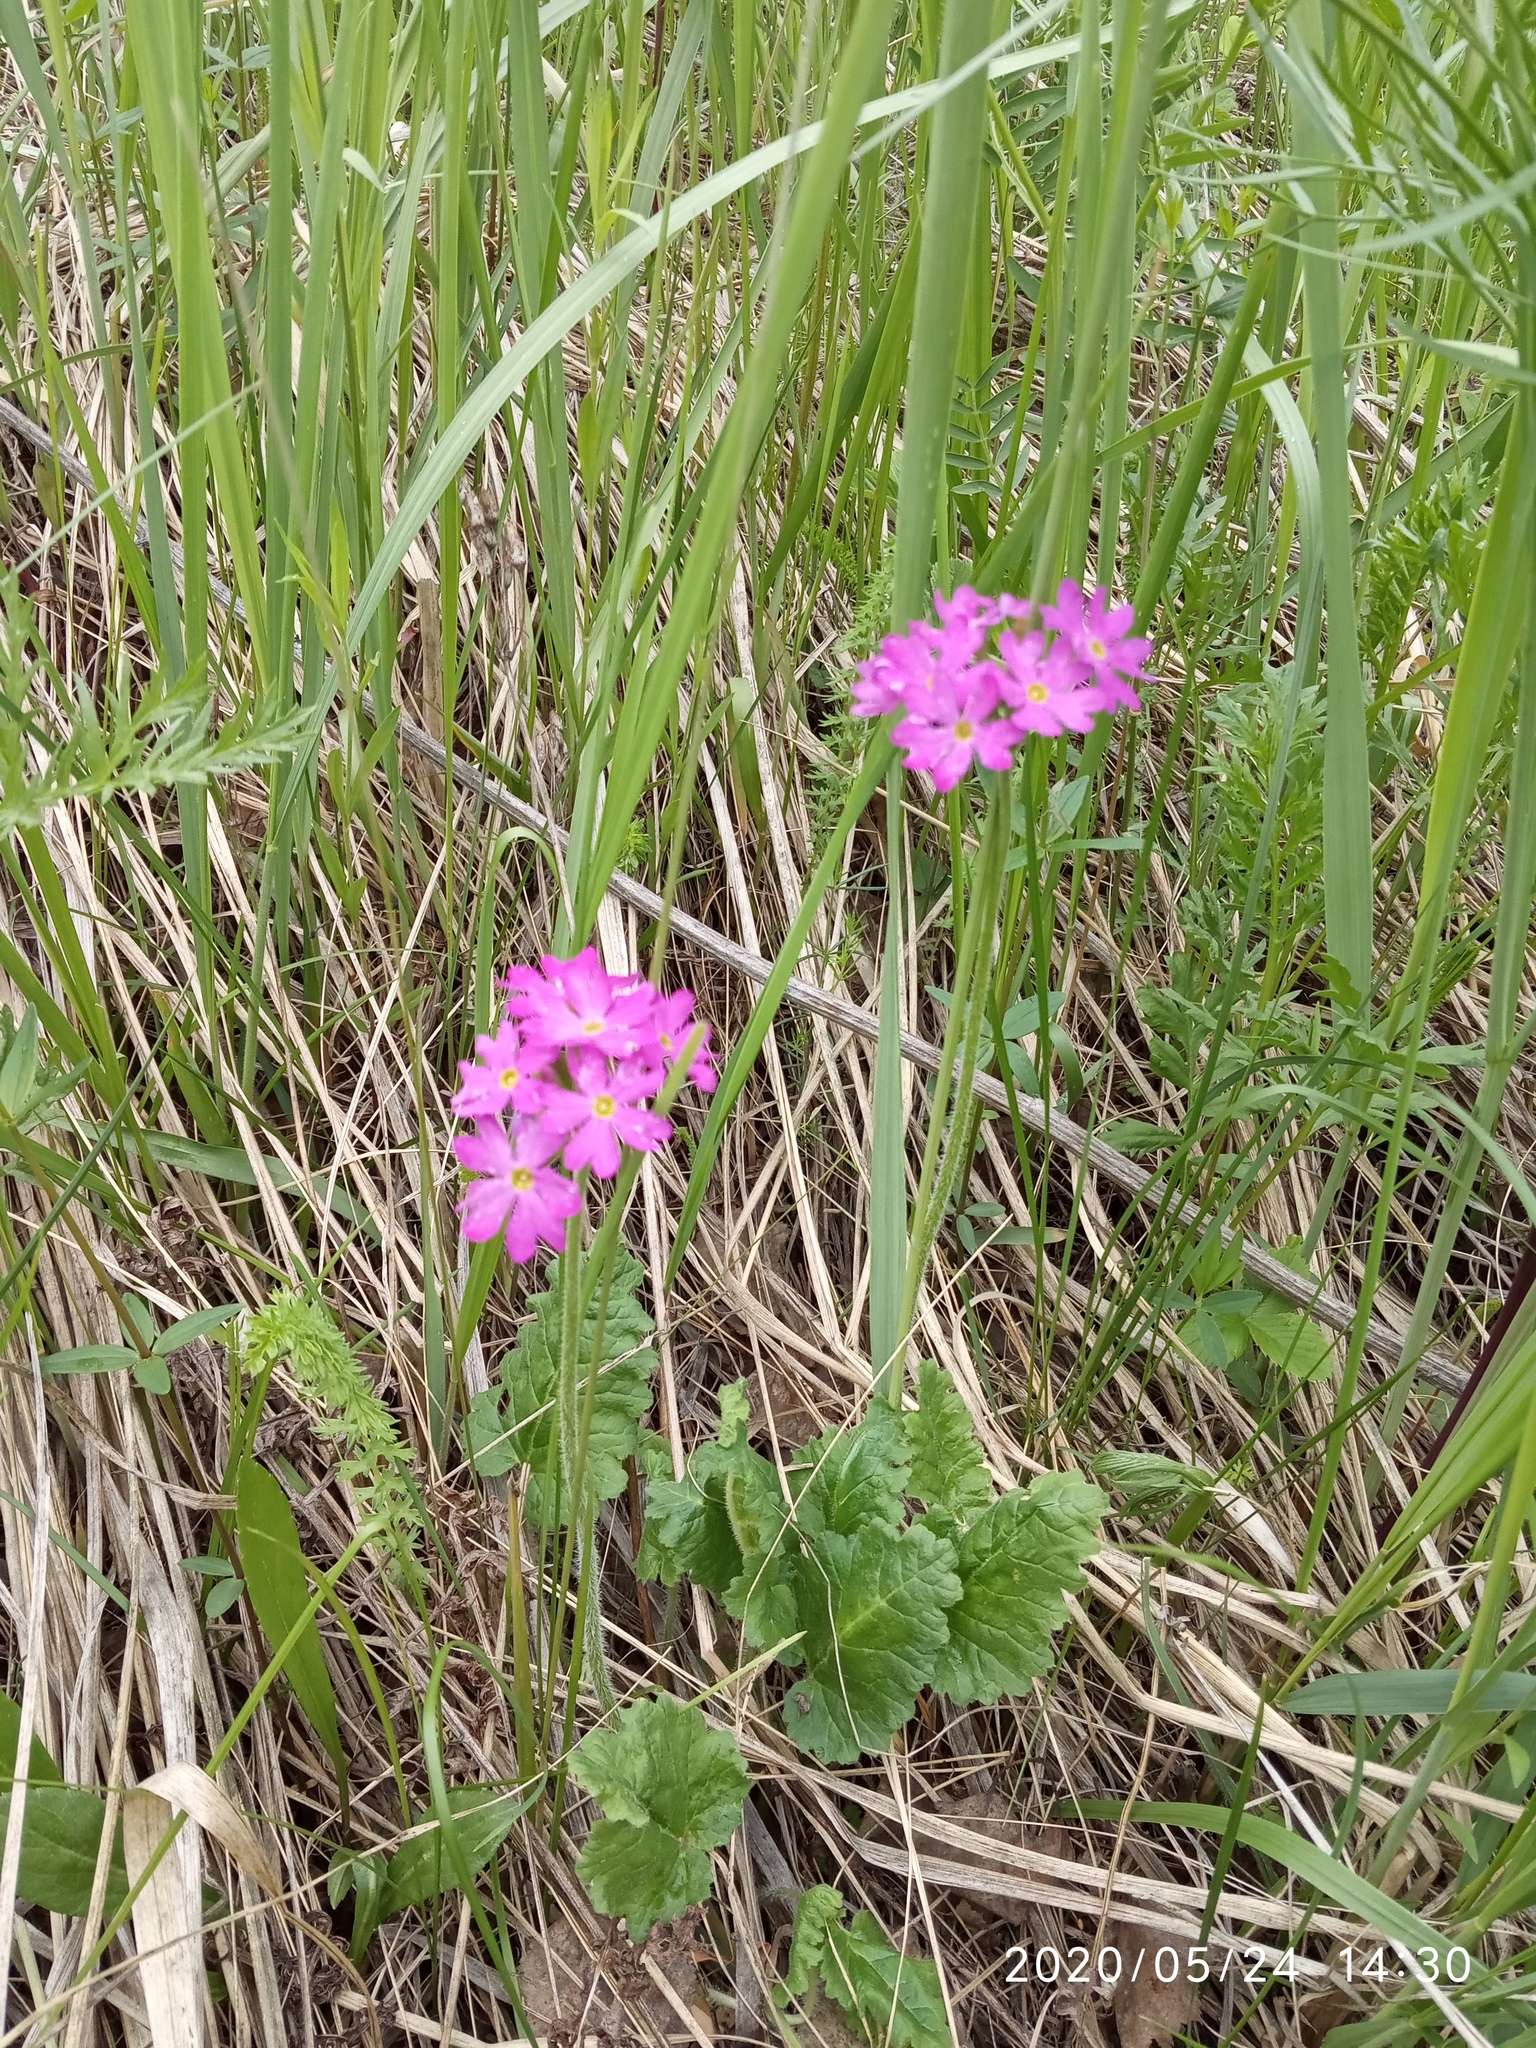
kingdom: Plantae
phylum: Tracheophyta
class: Magnoliopsida
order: Ericales
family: Primulaceae
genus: Primula
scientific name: Primula cortusoides
